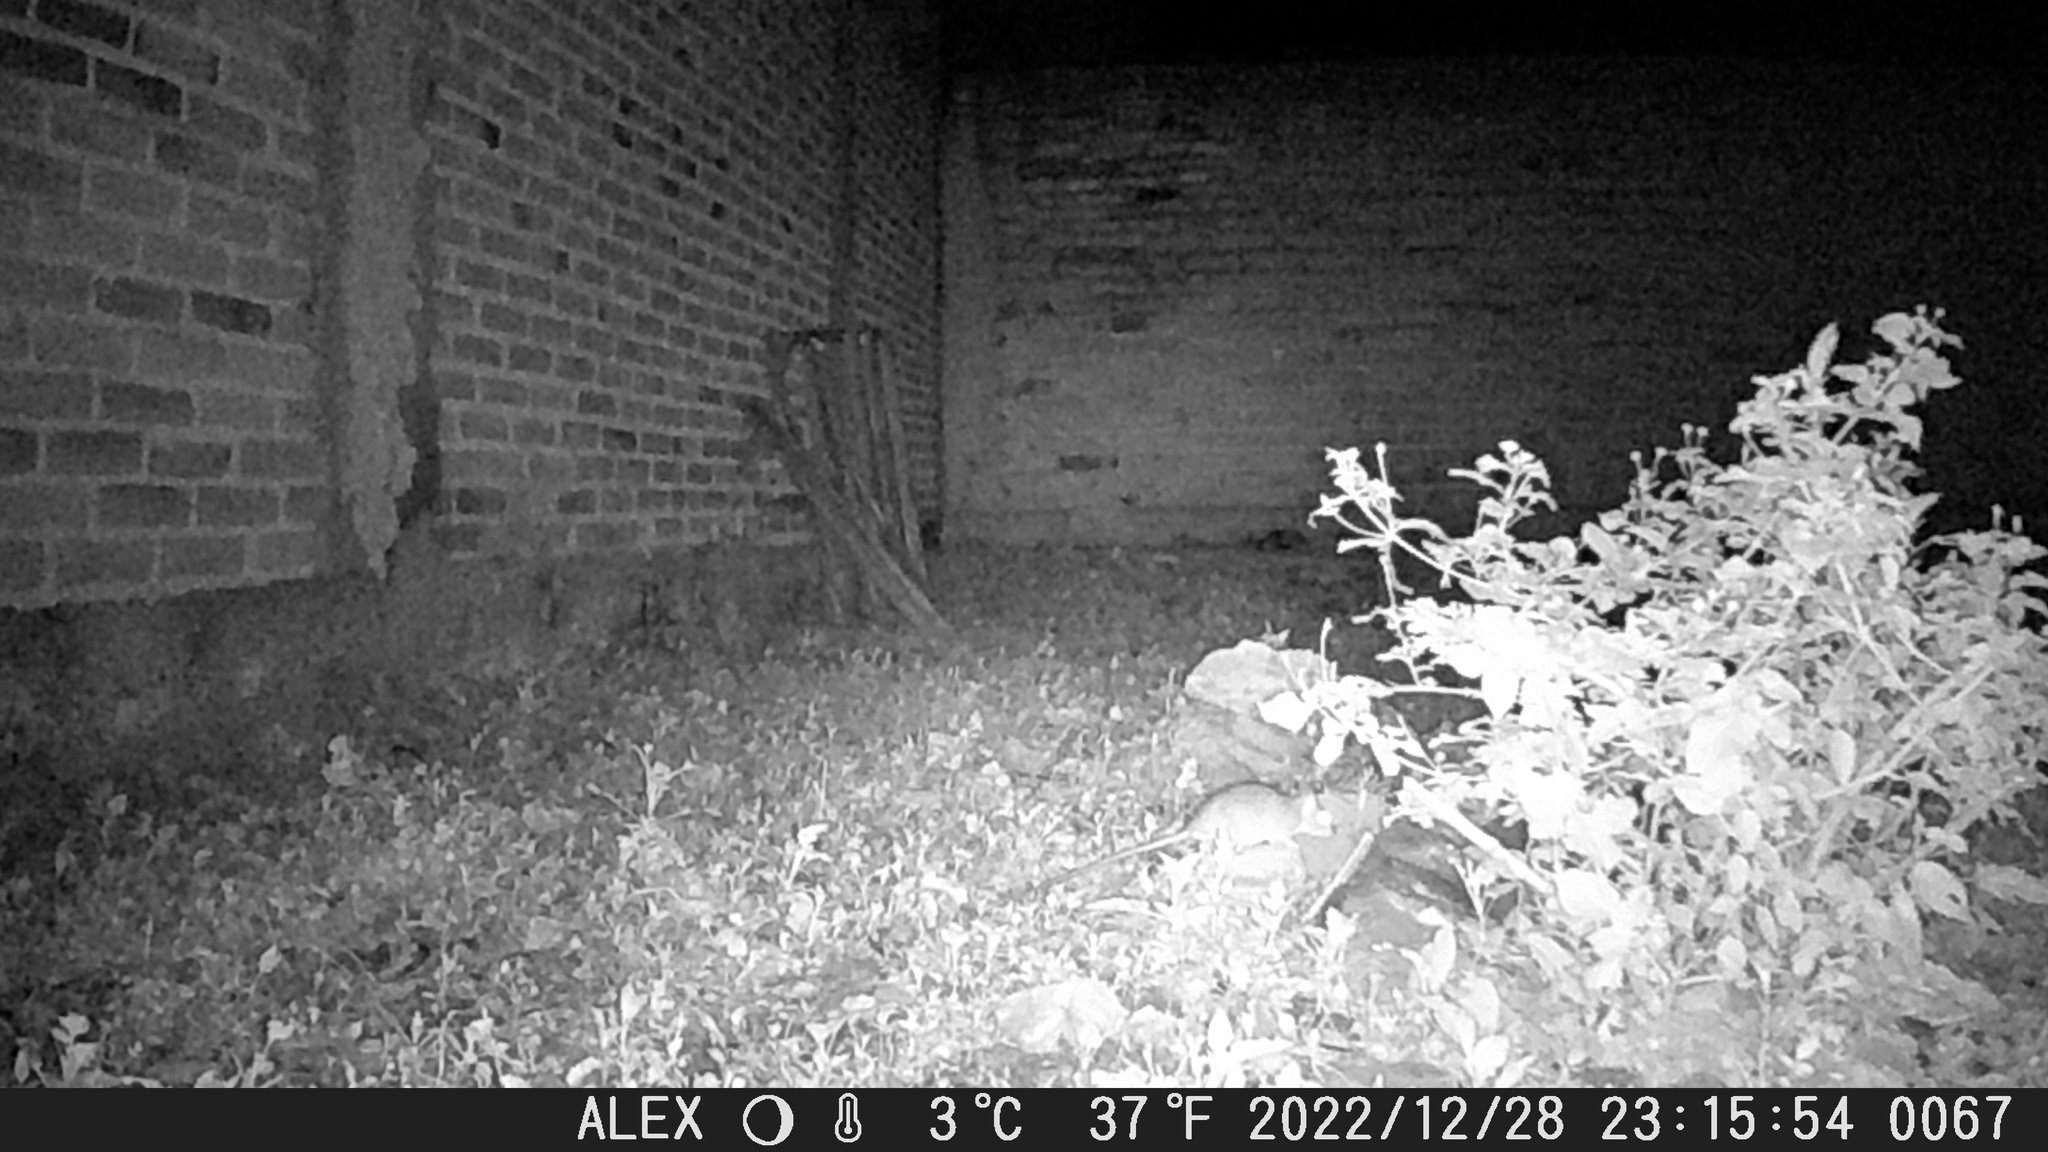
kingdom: Animalia
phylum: Chordata
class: Mammalia
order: Rodentia
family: Muridae
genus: Rattus
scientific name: Rattus
